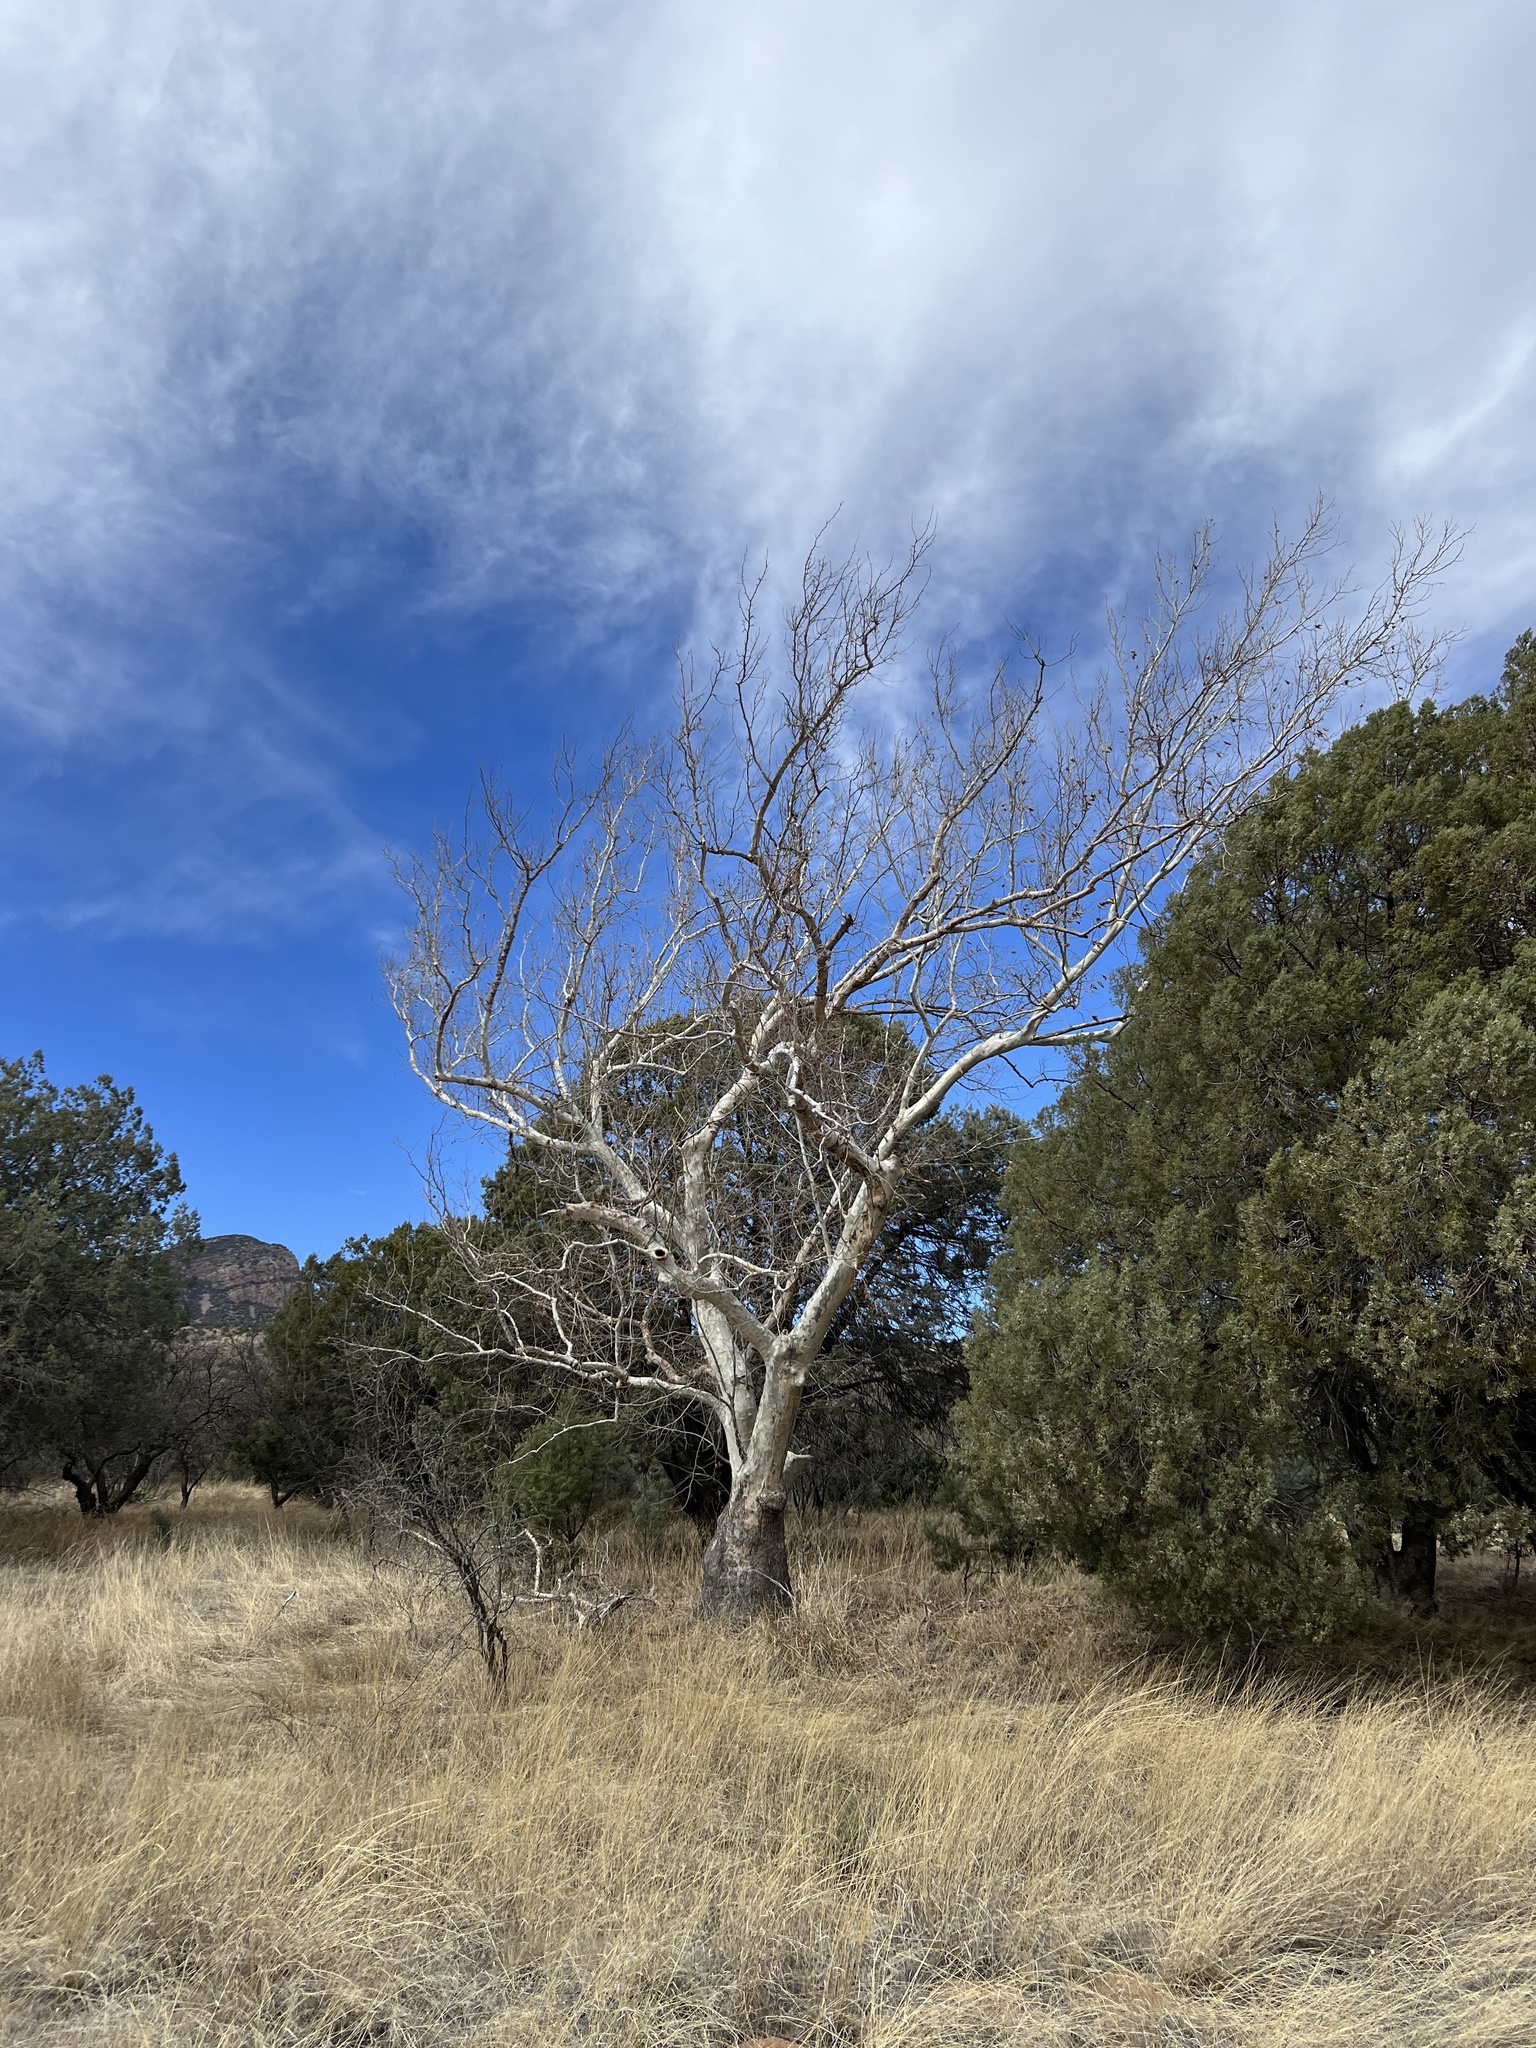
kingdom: Plantae
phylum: Tracheophyta
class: Magnoliopsida
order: Proteales
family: Platanaceae
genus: Platanus
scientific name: Platanus wrightii
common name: Arizona sycamore
